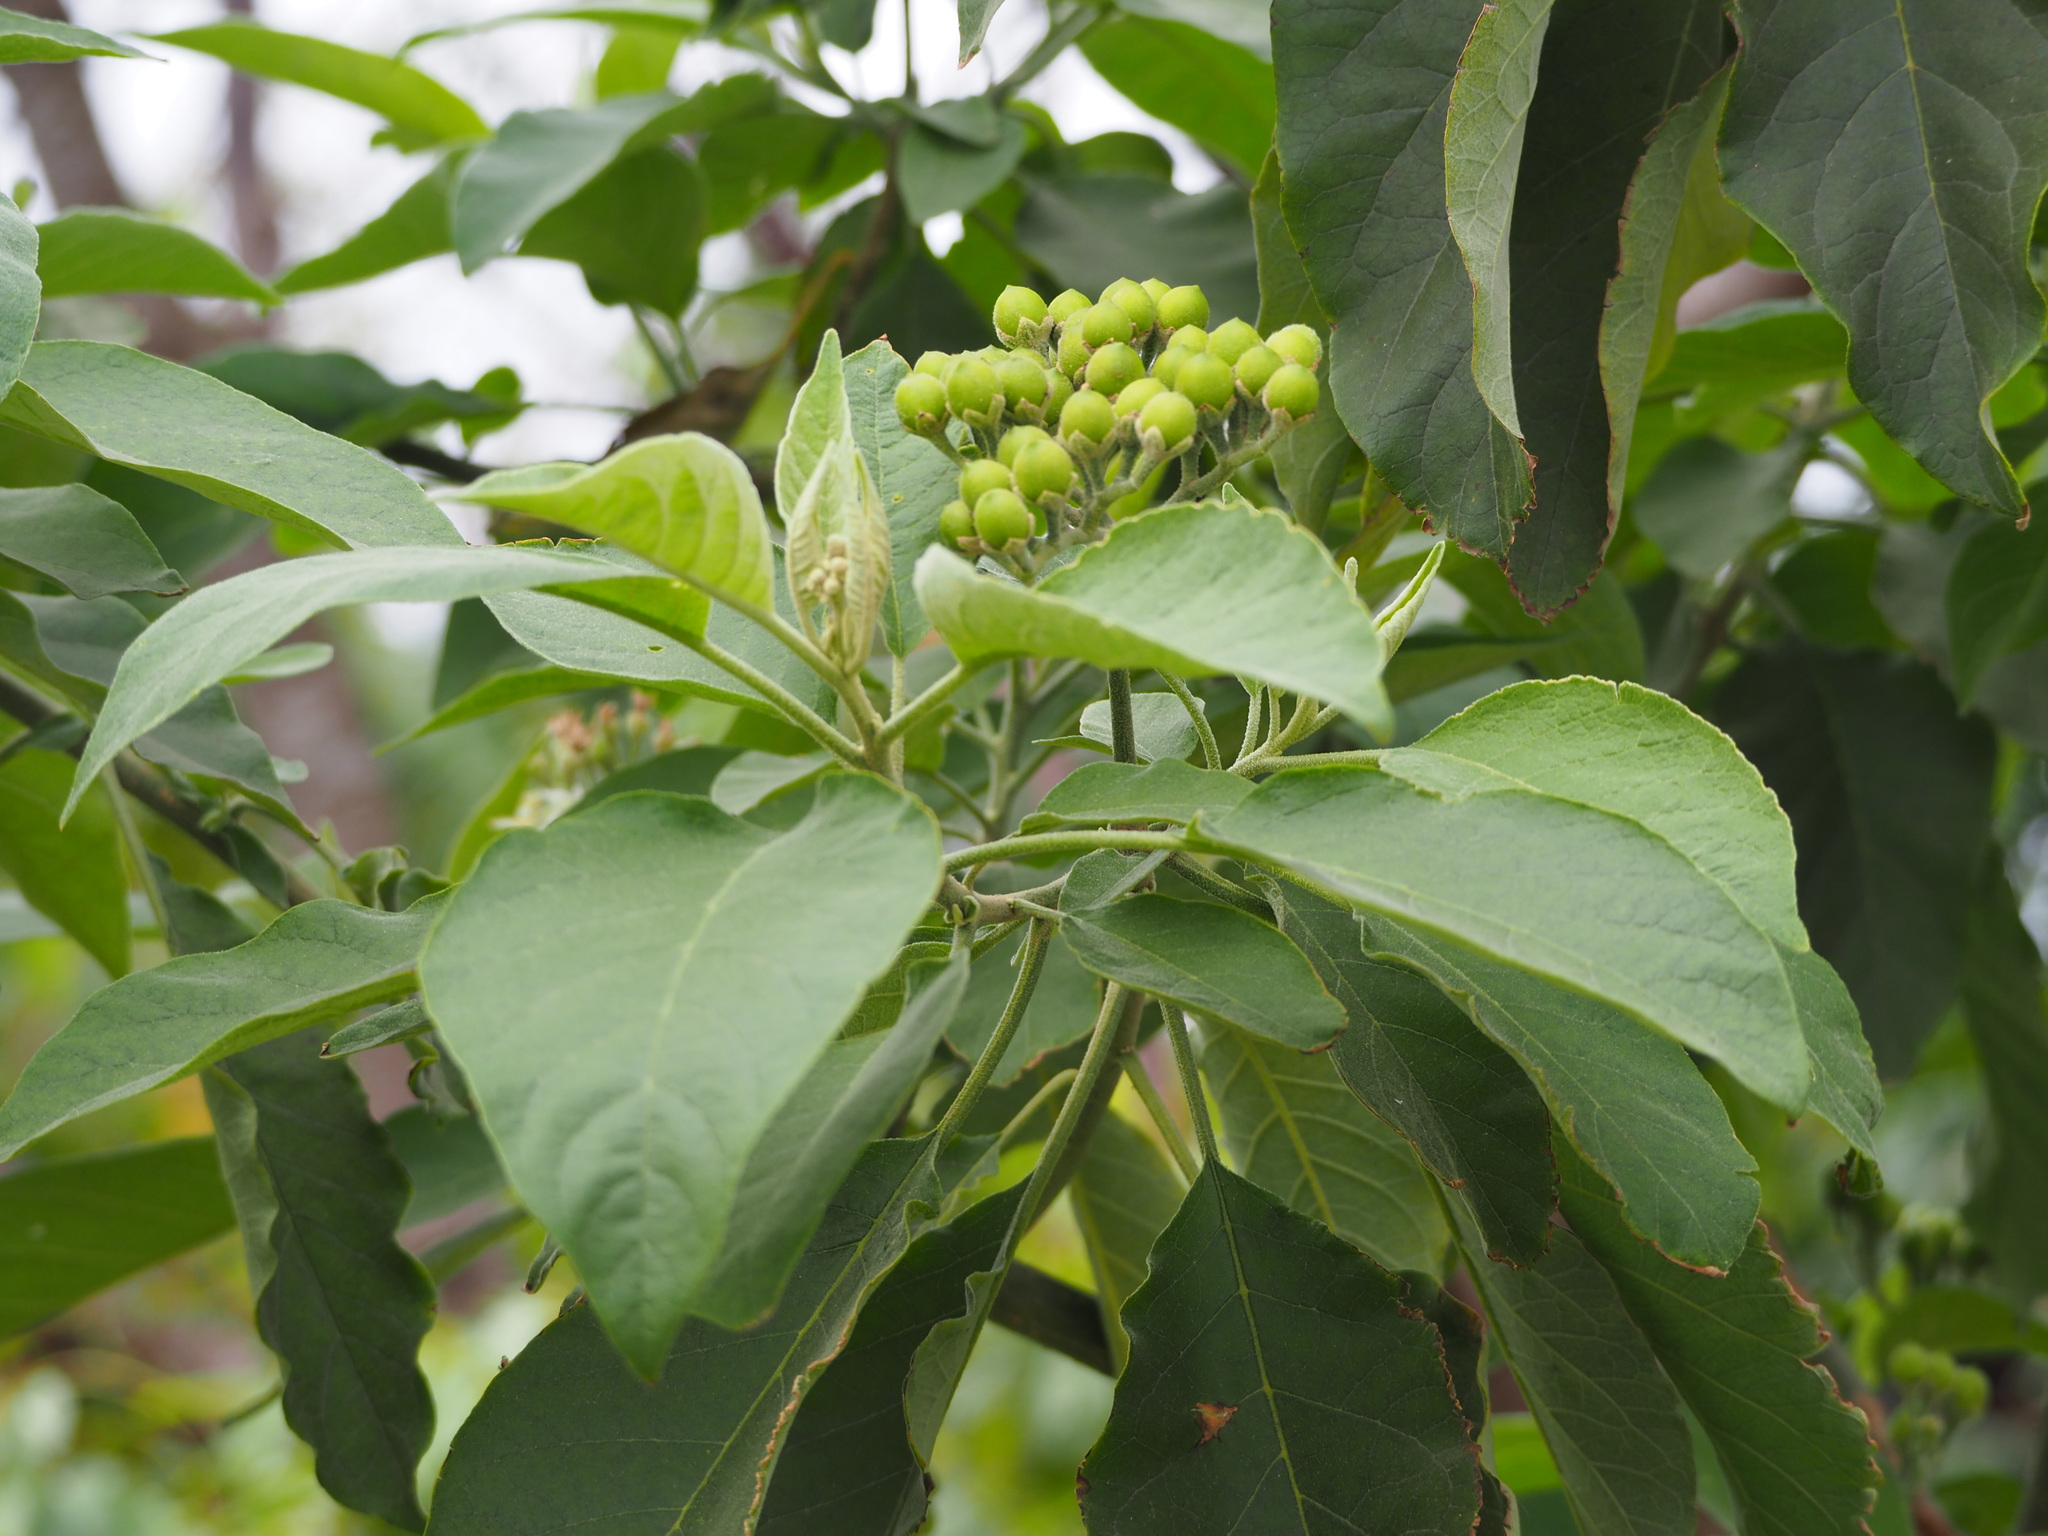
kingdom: Plantae
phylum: Tracheophyta
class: Magnoliopsida
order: Solanales
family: Solanaceae
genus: Solanum
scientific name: Solanum erianthum
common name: Tobacco-tree
